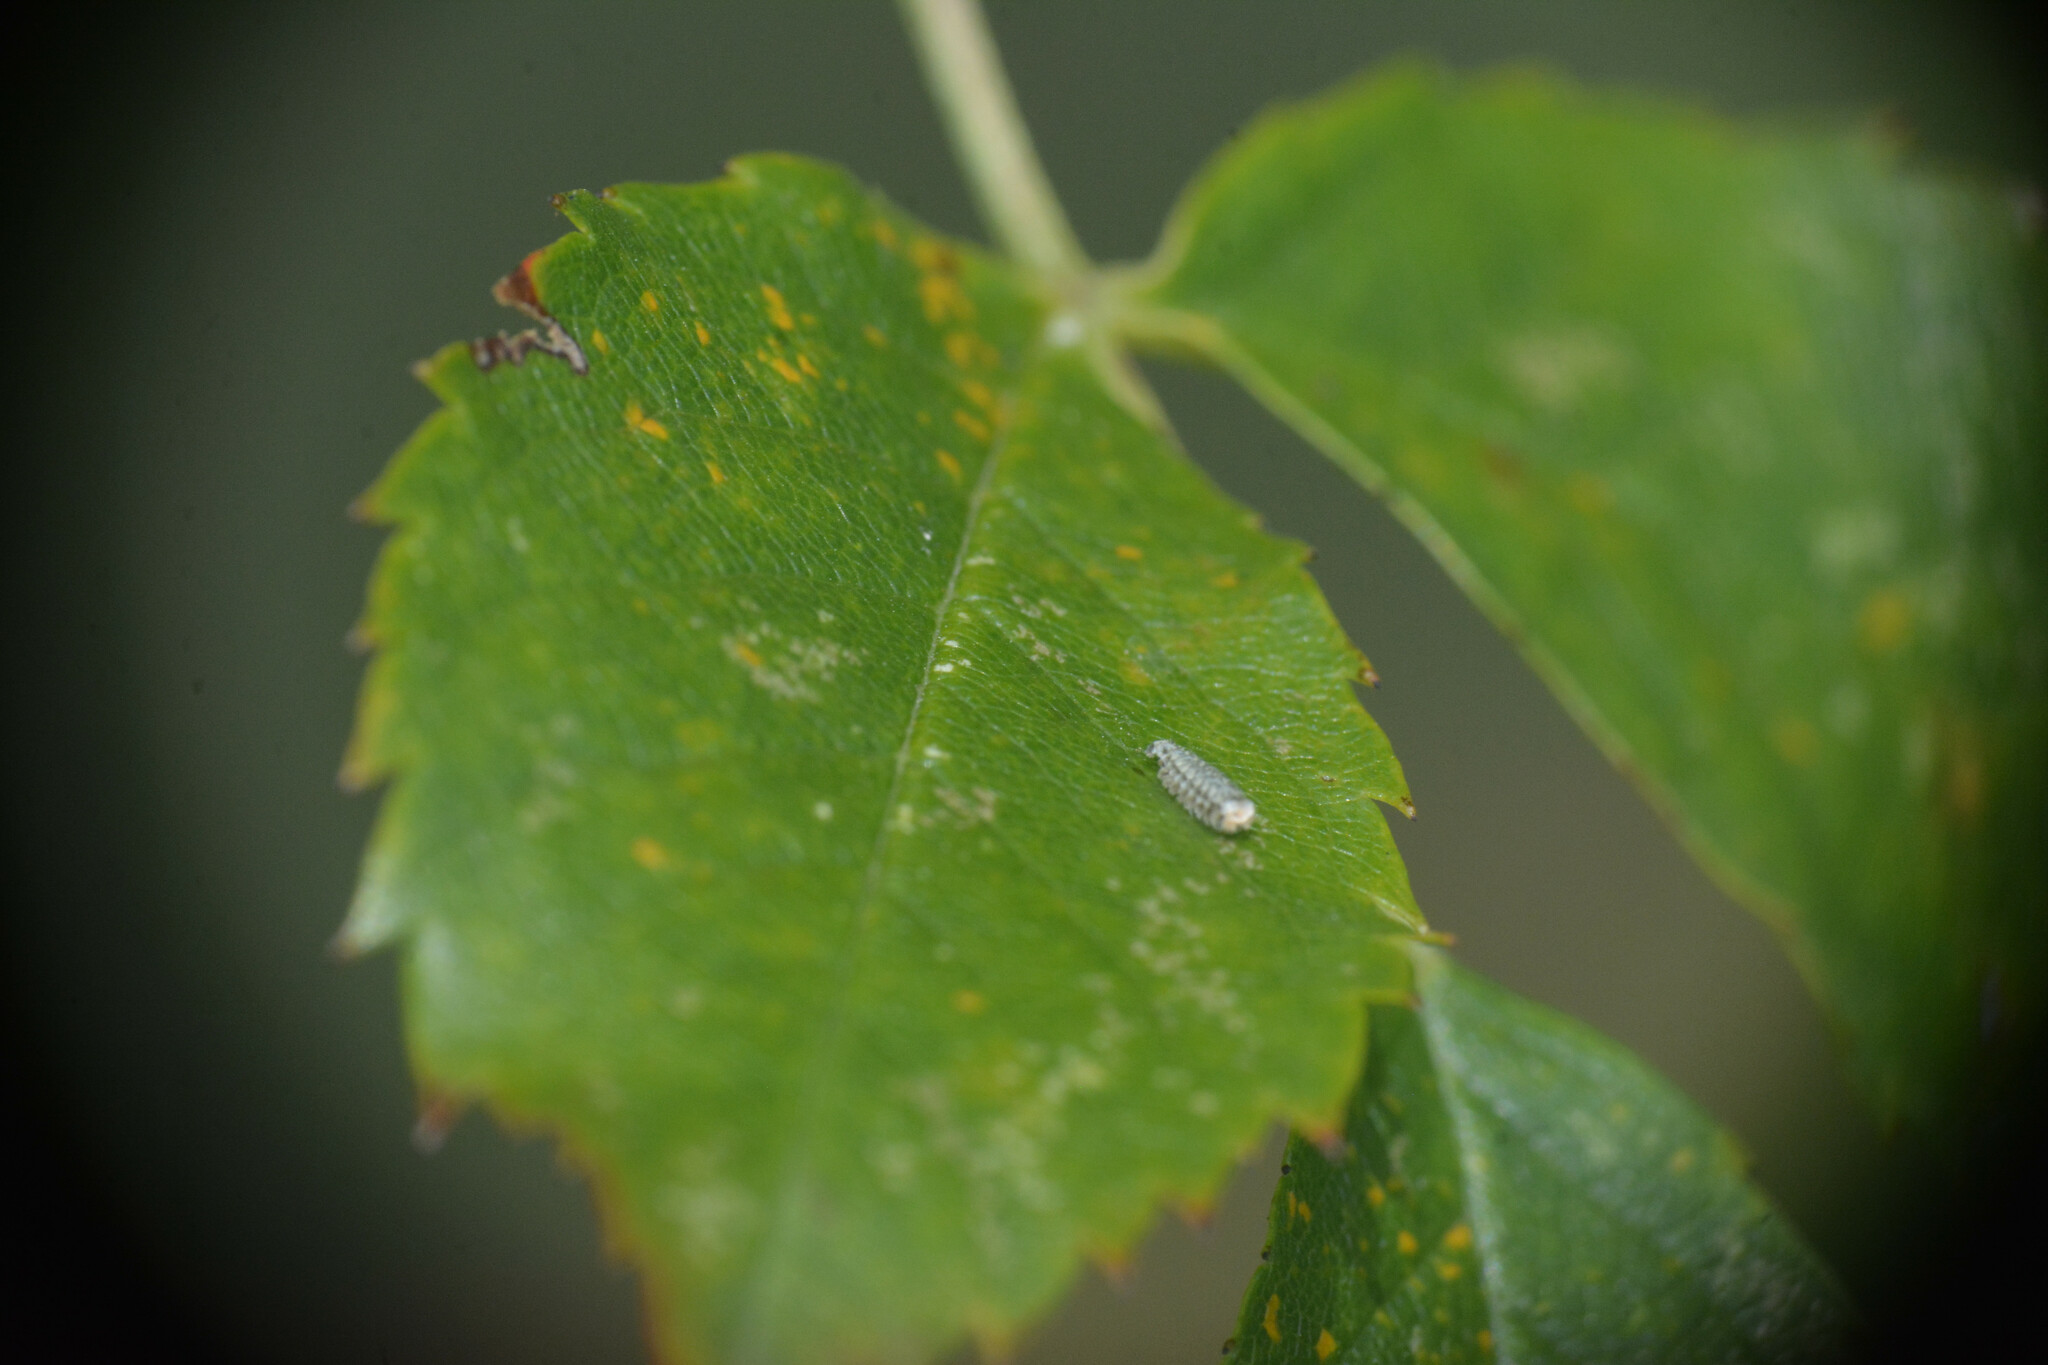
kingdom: Animalia
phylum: Arthropoda
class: Diplopoda
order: Polyxenida
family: Polyxenidae
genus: Polyxenus
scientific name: Polyxenus lagurus
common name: Bristly millipede
